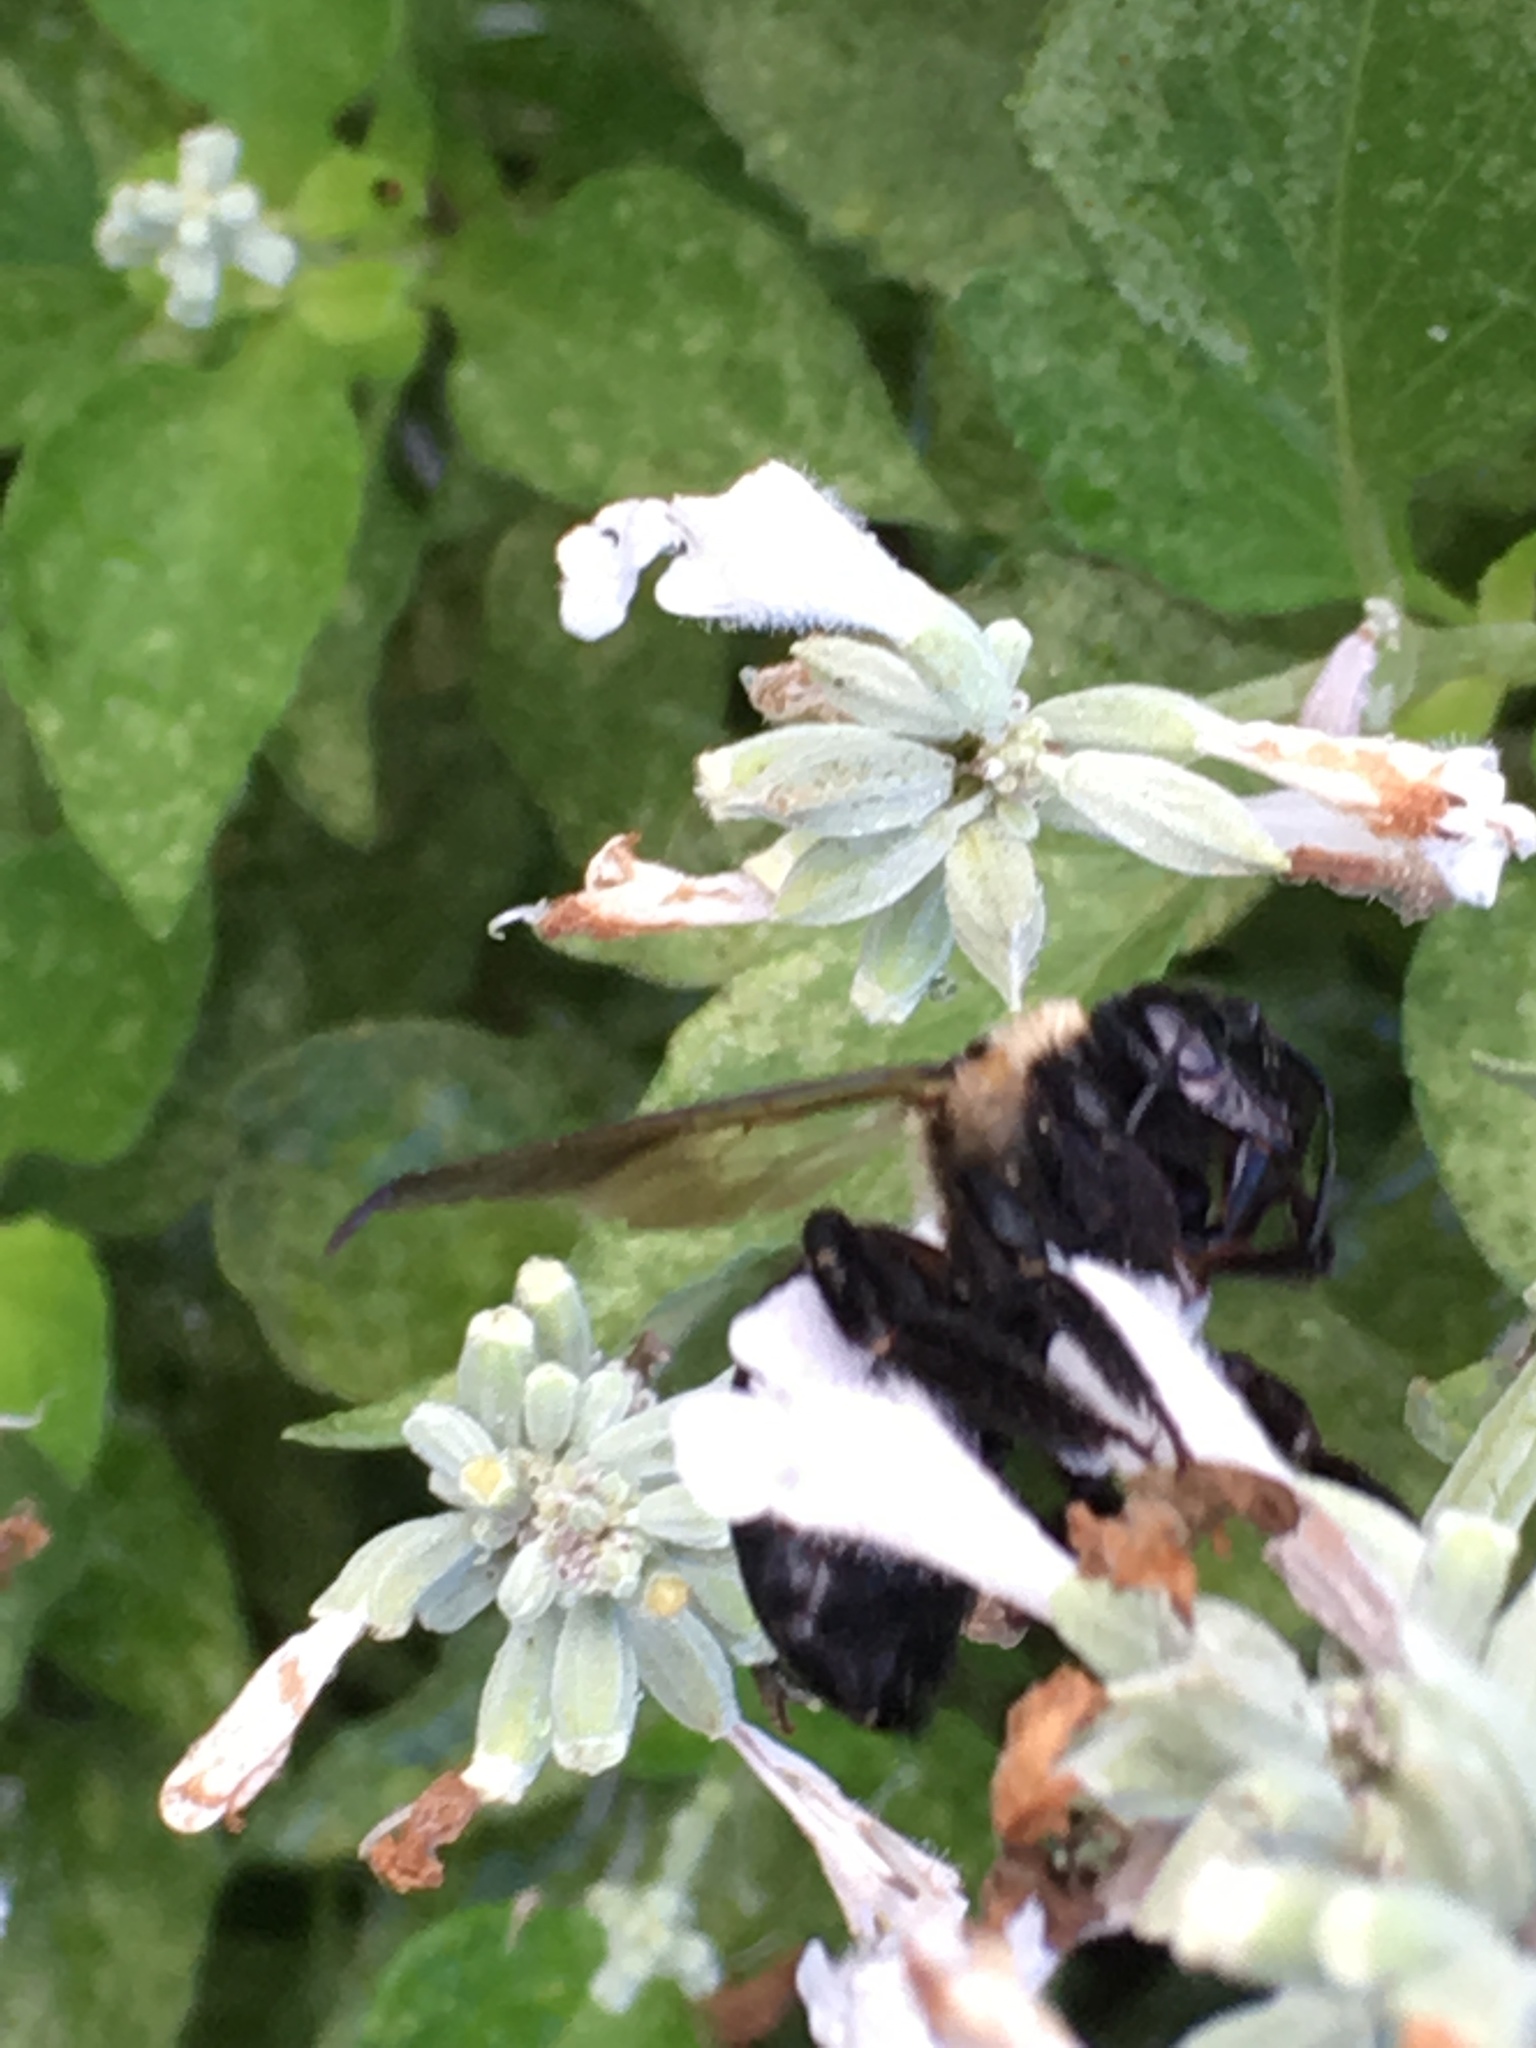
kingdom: Animalia
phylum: Arthropoda
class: Insecta
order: Hymenoptera
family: Apidae
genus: Xylocopa
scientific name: Xylocopa virginica
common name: Carpenter bee
